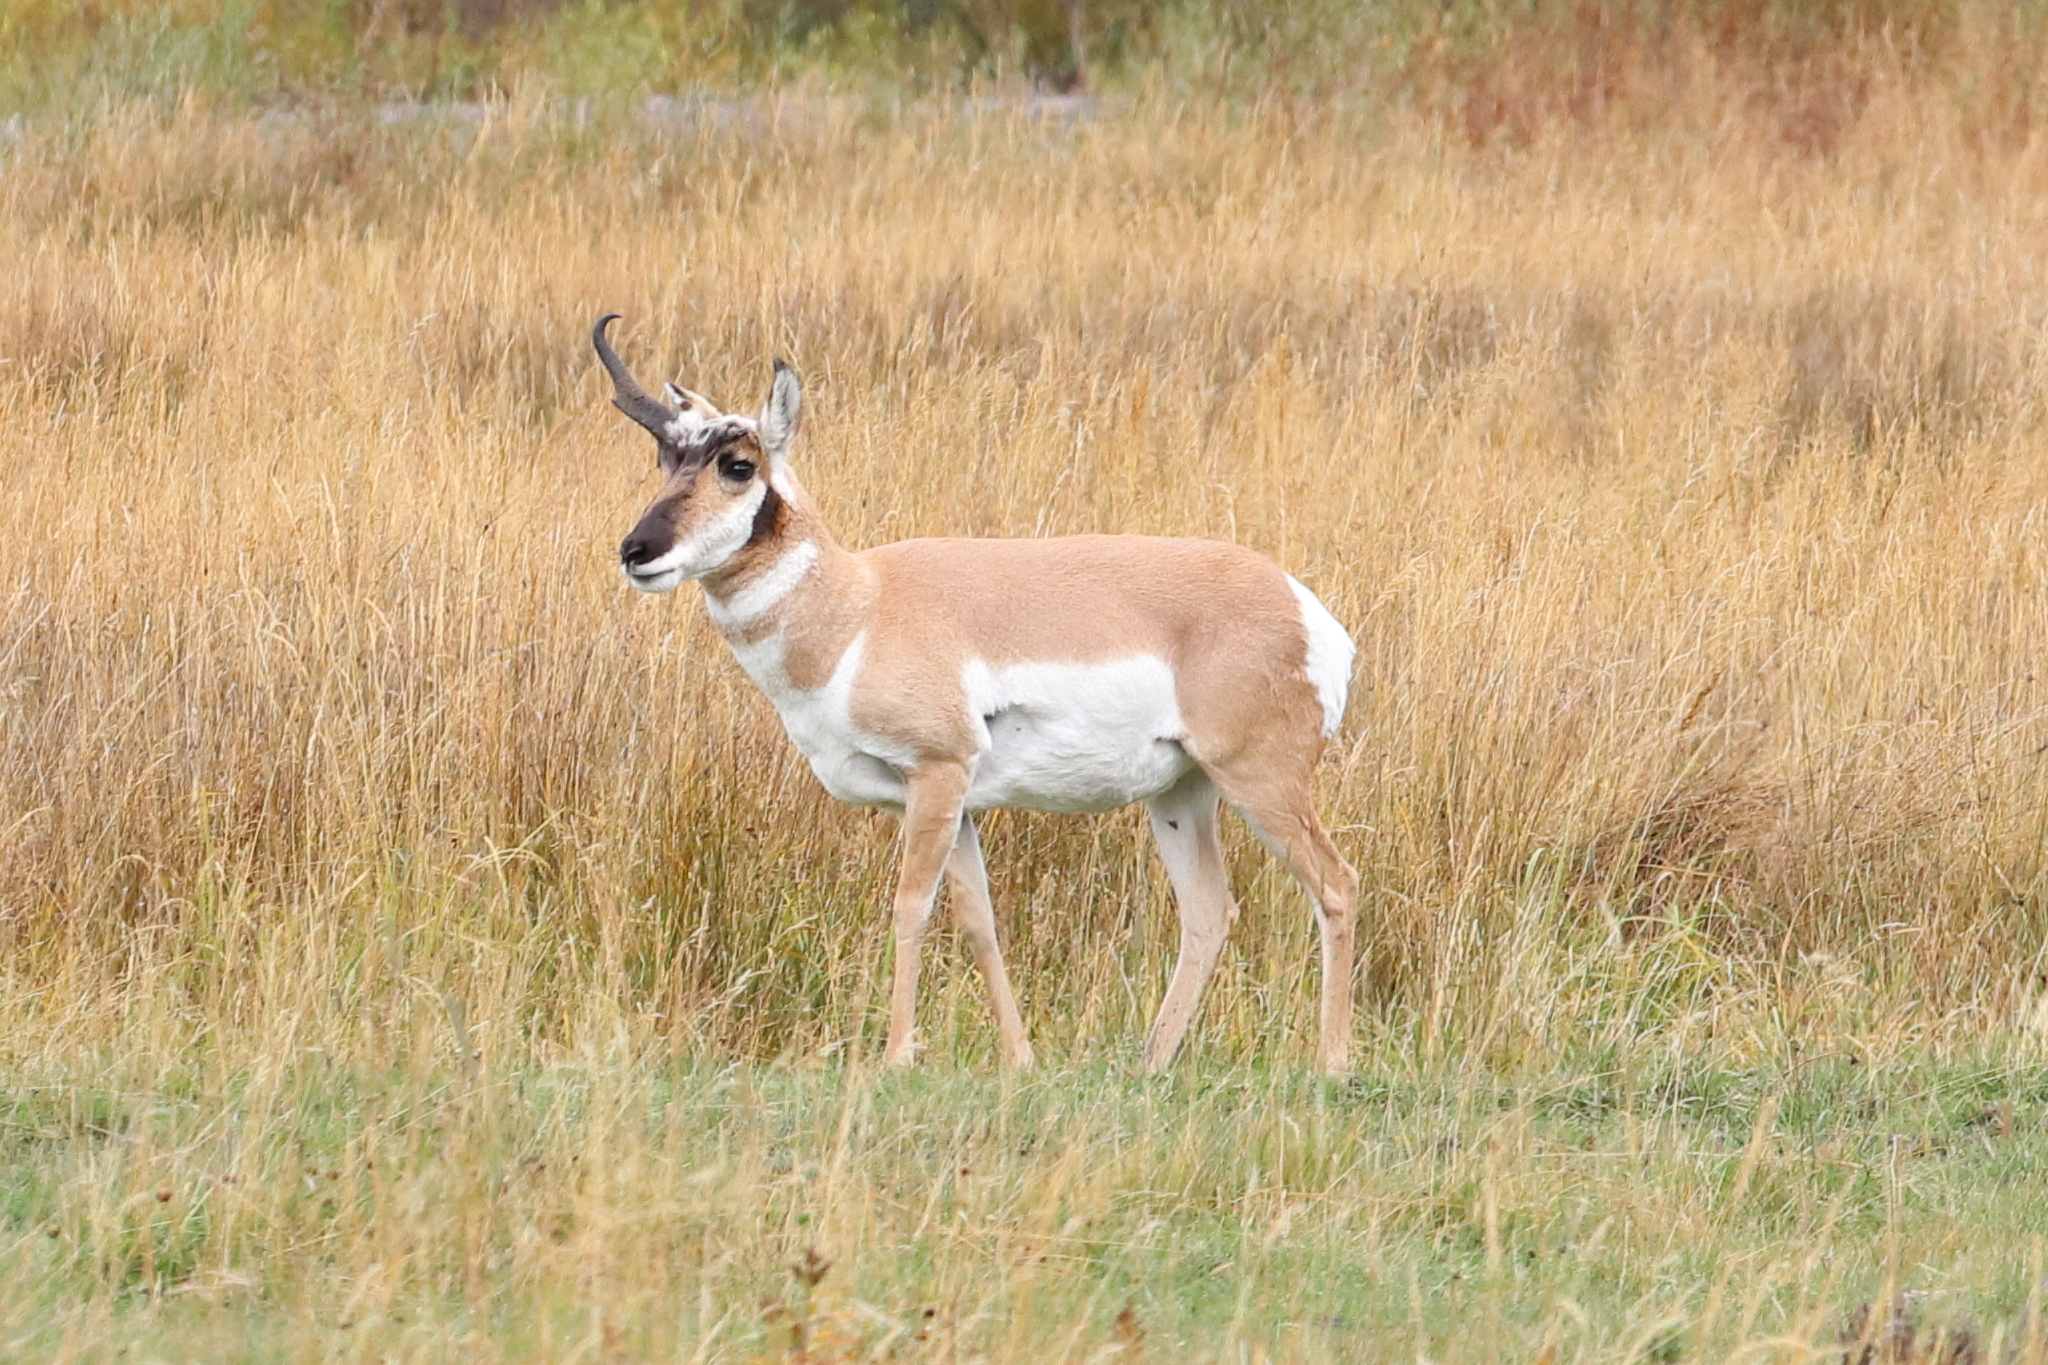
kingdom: Animalia
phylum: Chordata
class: Mammalia
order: Artiodactyla
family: Antilocapridae
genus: Antilocapra
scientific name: Antilocapra americana
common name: Pronghorn
